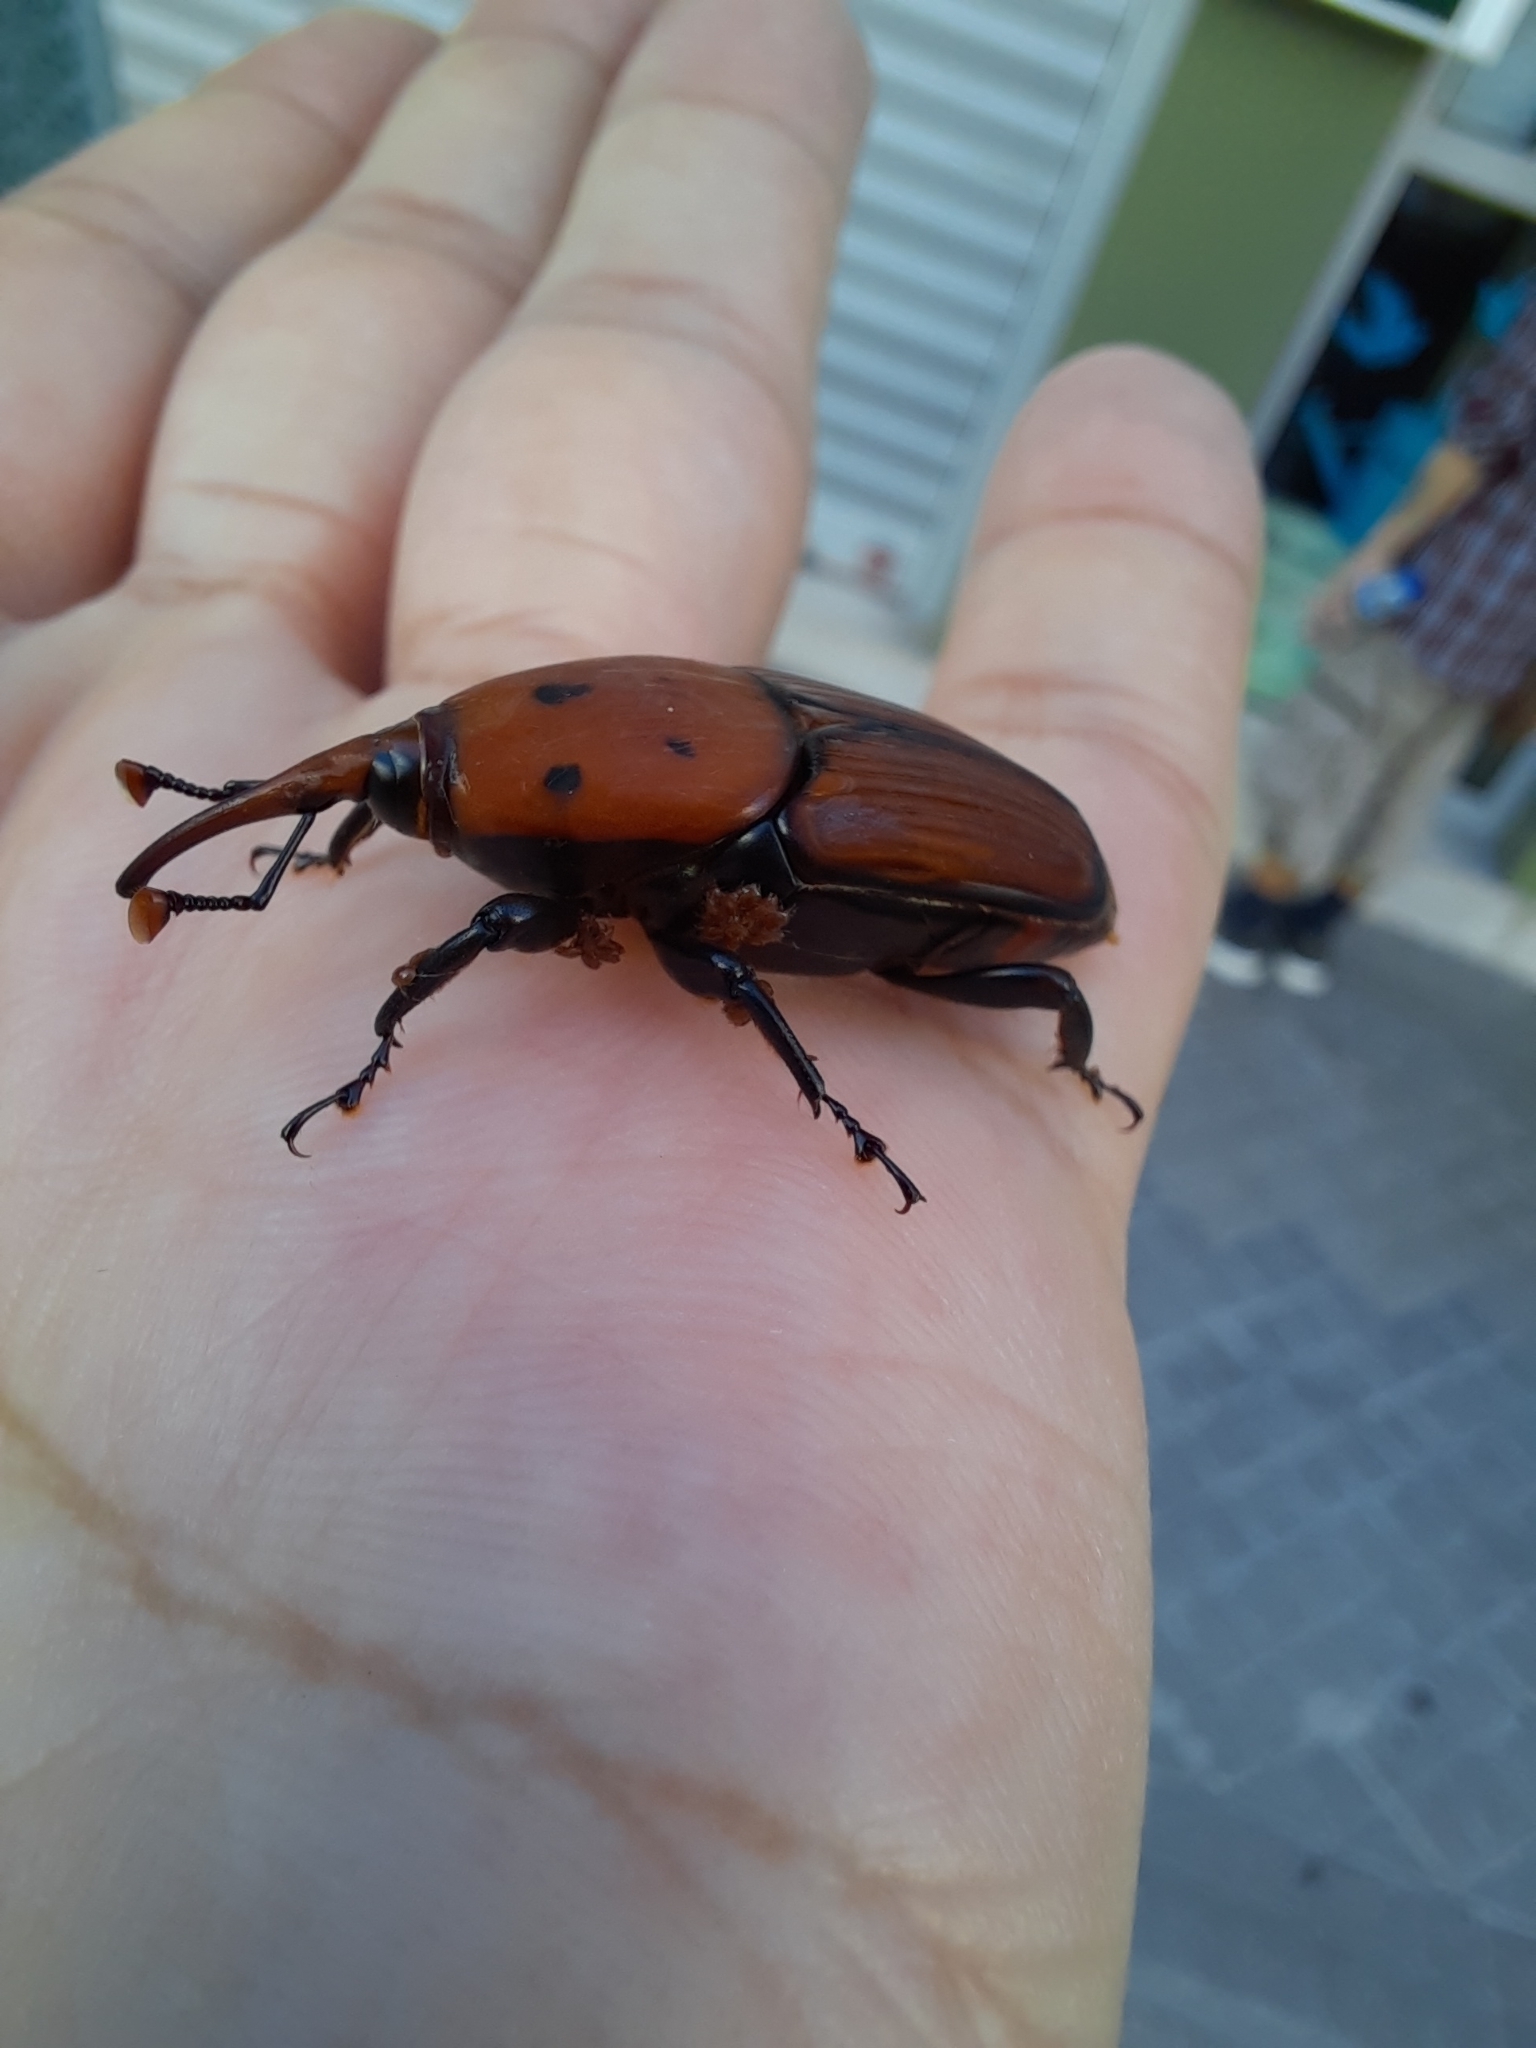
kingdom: Animalia
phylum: Arthropoda
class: Insecta
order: Coleoptera
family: Dryophthoridae
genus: Rhynchophorus
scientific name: Rhynchophorus ferrugineus
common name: Red palm weevil
